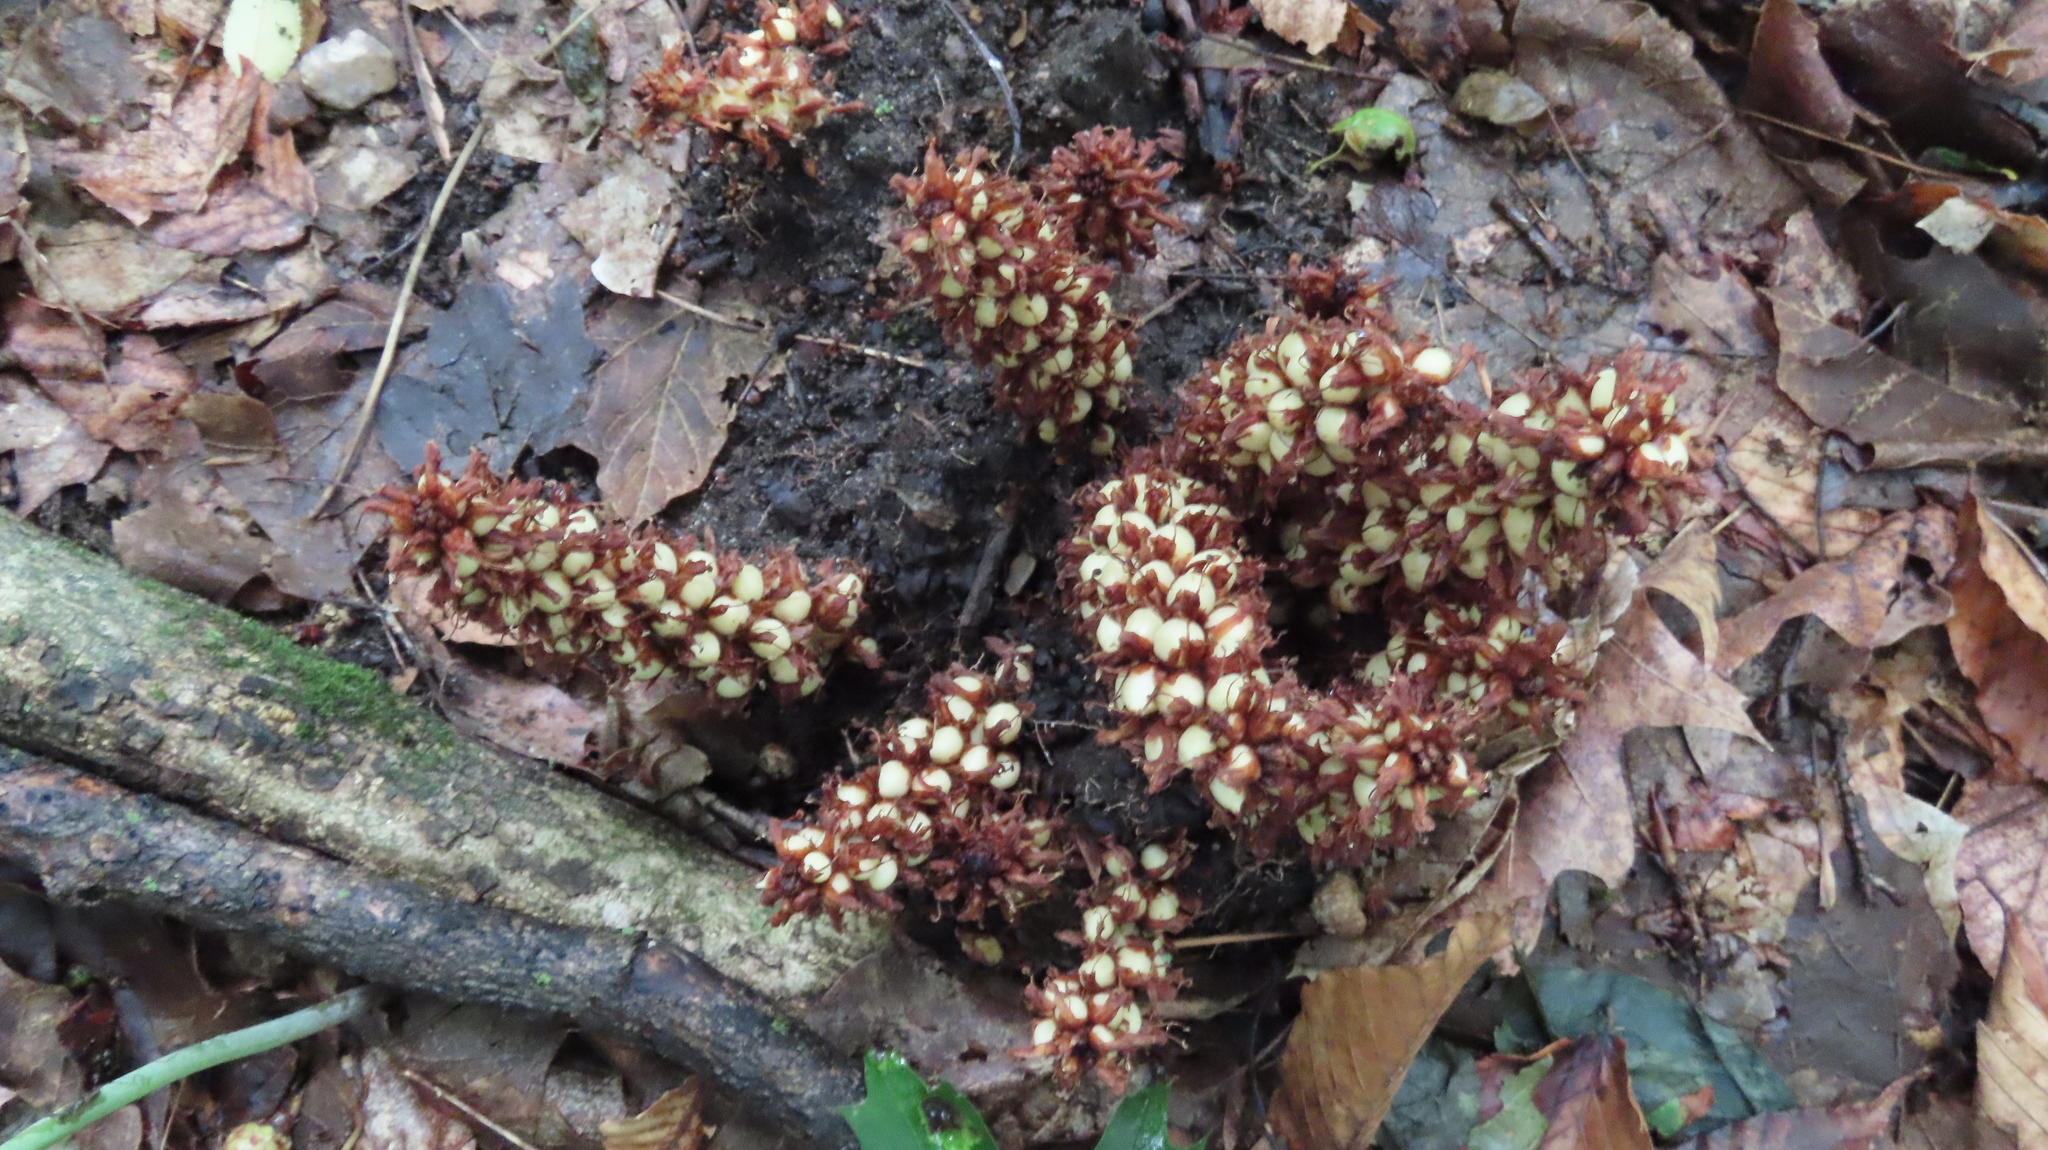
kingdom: Plantae
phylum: Tracheophyta
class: Magnoliopsida
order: Lamiales
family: Orobanchaceae
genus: Conopholis
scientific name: Conopholis americana
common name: American cancer-root
